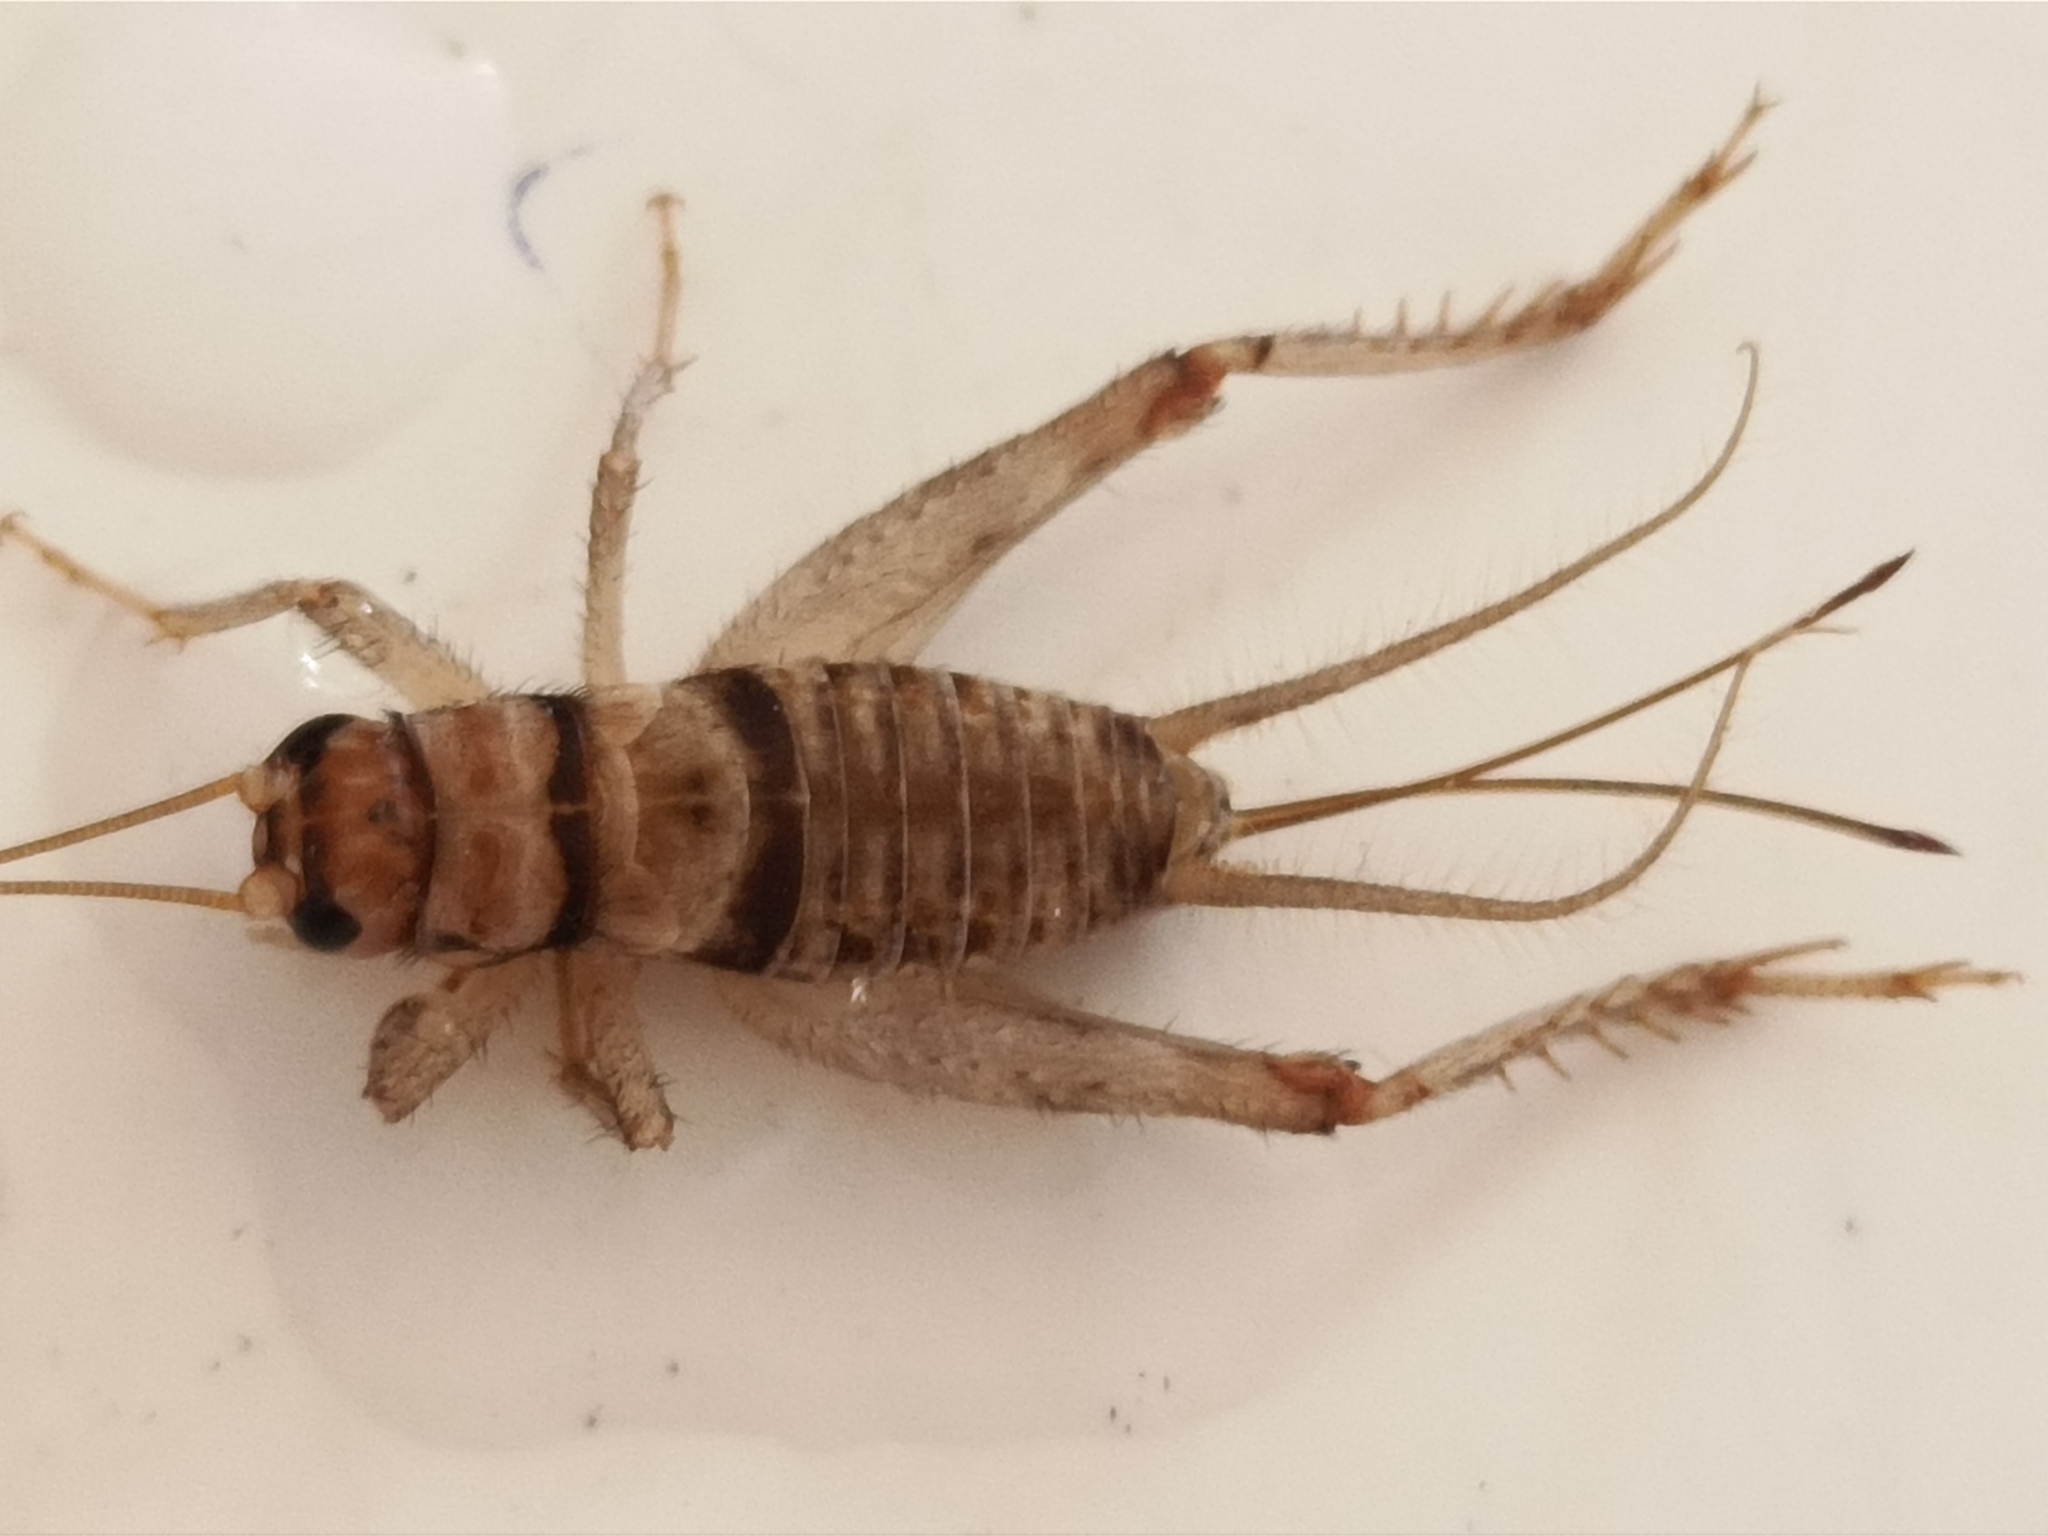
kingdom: Animalia
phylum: Arthropoda
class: Insecta
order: Orthoptera
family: Gryllidae
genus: Gryllodes
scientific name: Gryllodes sigillatus
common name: Tropical house cricket
